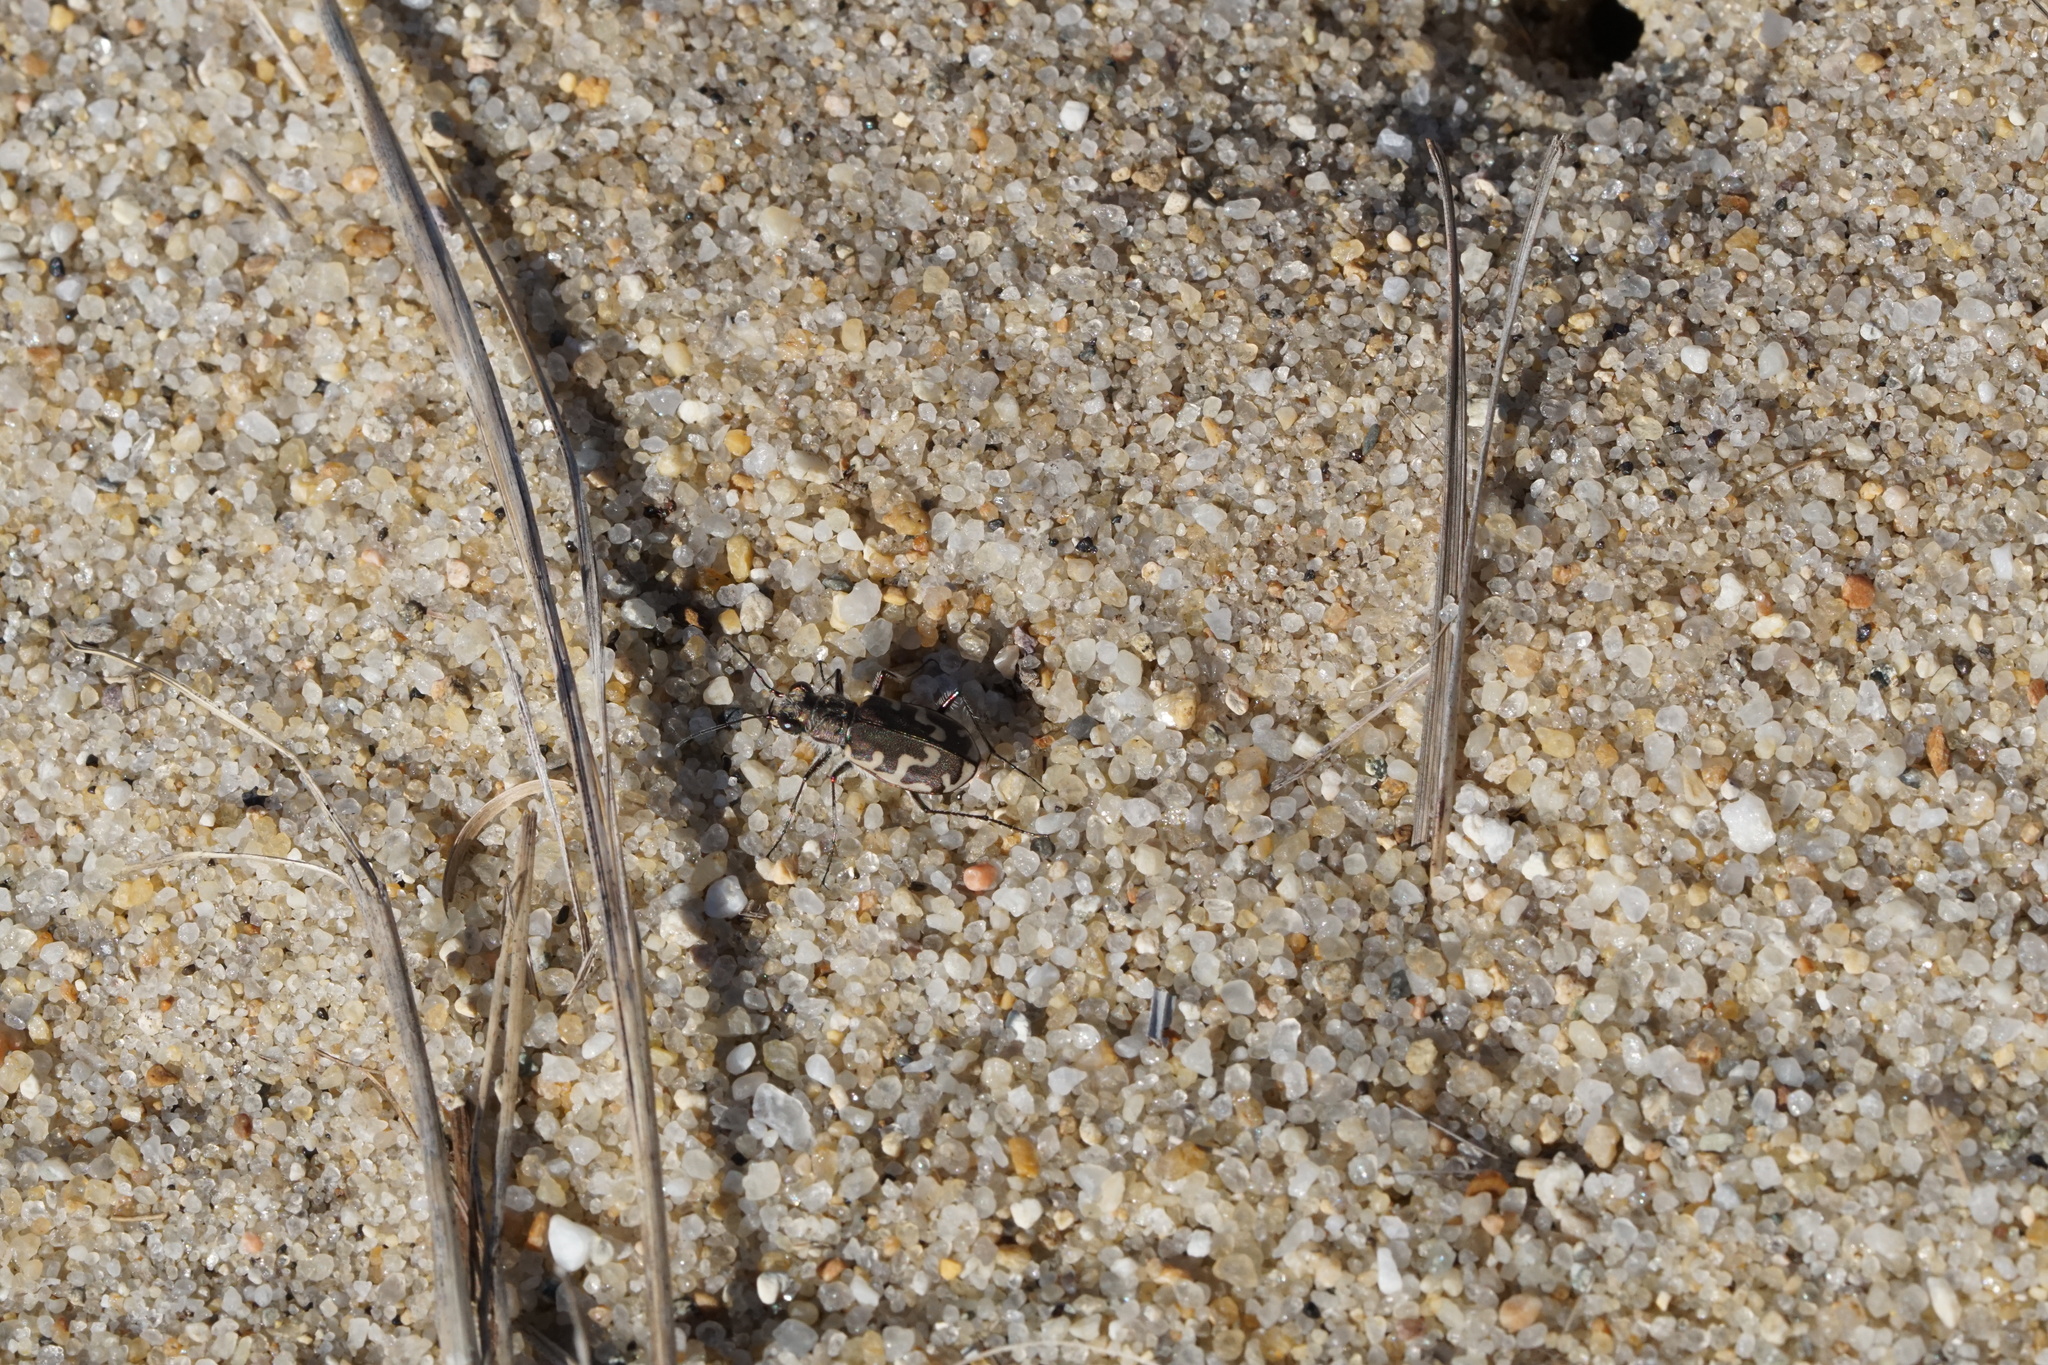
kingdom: Animalia
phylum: Arthropoda
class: Insecta
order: Coleoptera
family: Carabidae
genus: Cicindela
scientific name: Cicindela repanda
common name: Bronzed tiger beetle
